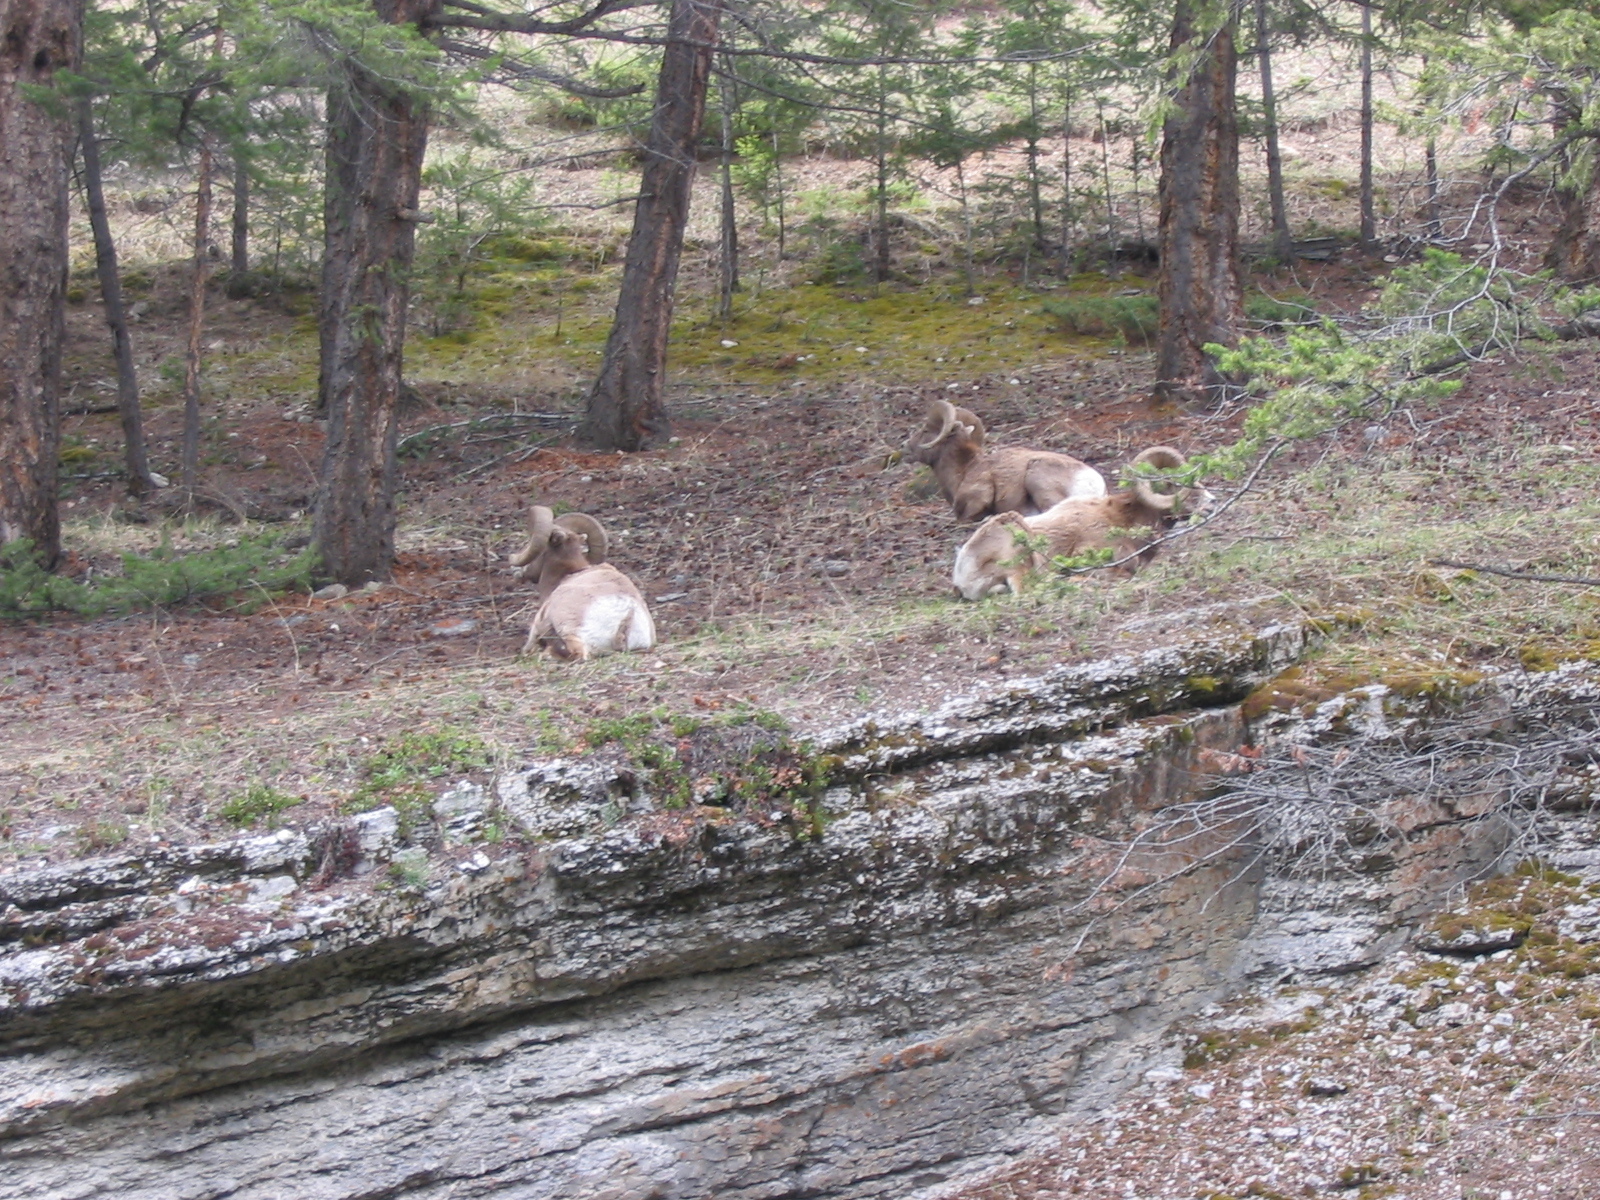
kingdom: Animalia
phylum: Chordata
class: Mammalia
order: Artiodactyla
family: Bovidae
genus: Ovis
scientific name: Ovis canadensis
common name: Bighorn sheep
